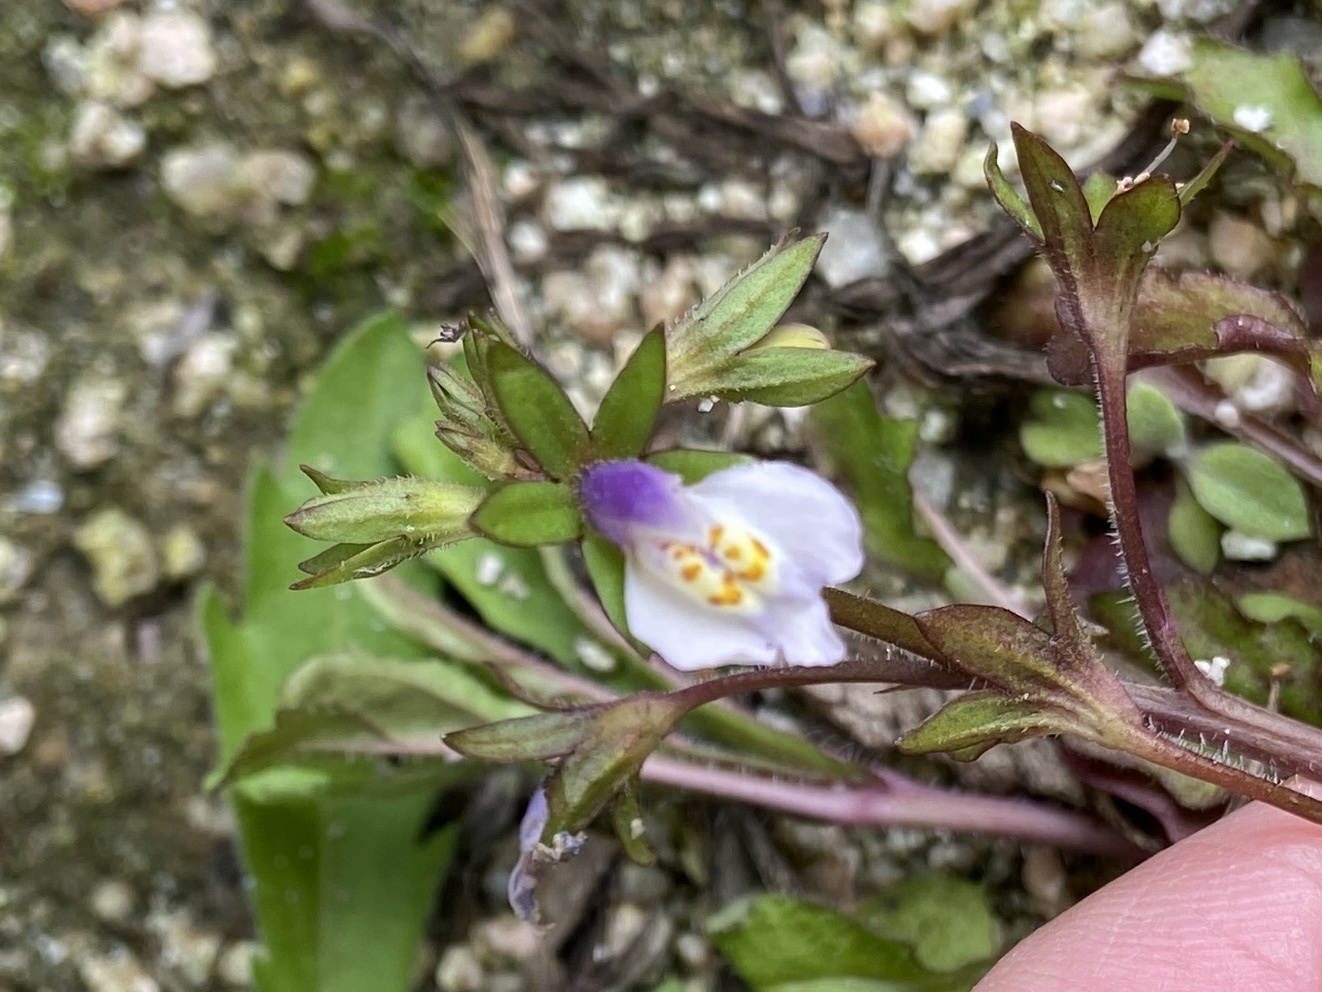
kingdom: Plantae
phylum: Tracheophyta
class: Magnoliopsida
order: Lamiales
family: Mazaceae
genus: Mazus
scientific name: Mazus pumilus
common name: Japanese mazus
